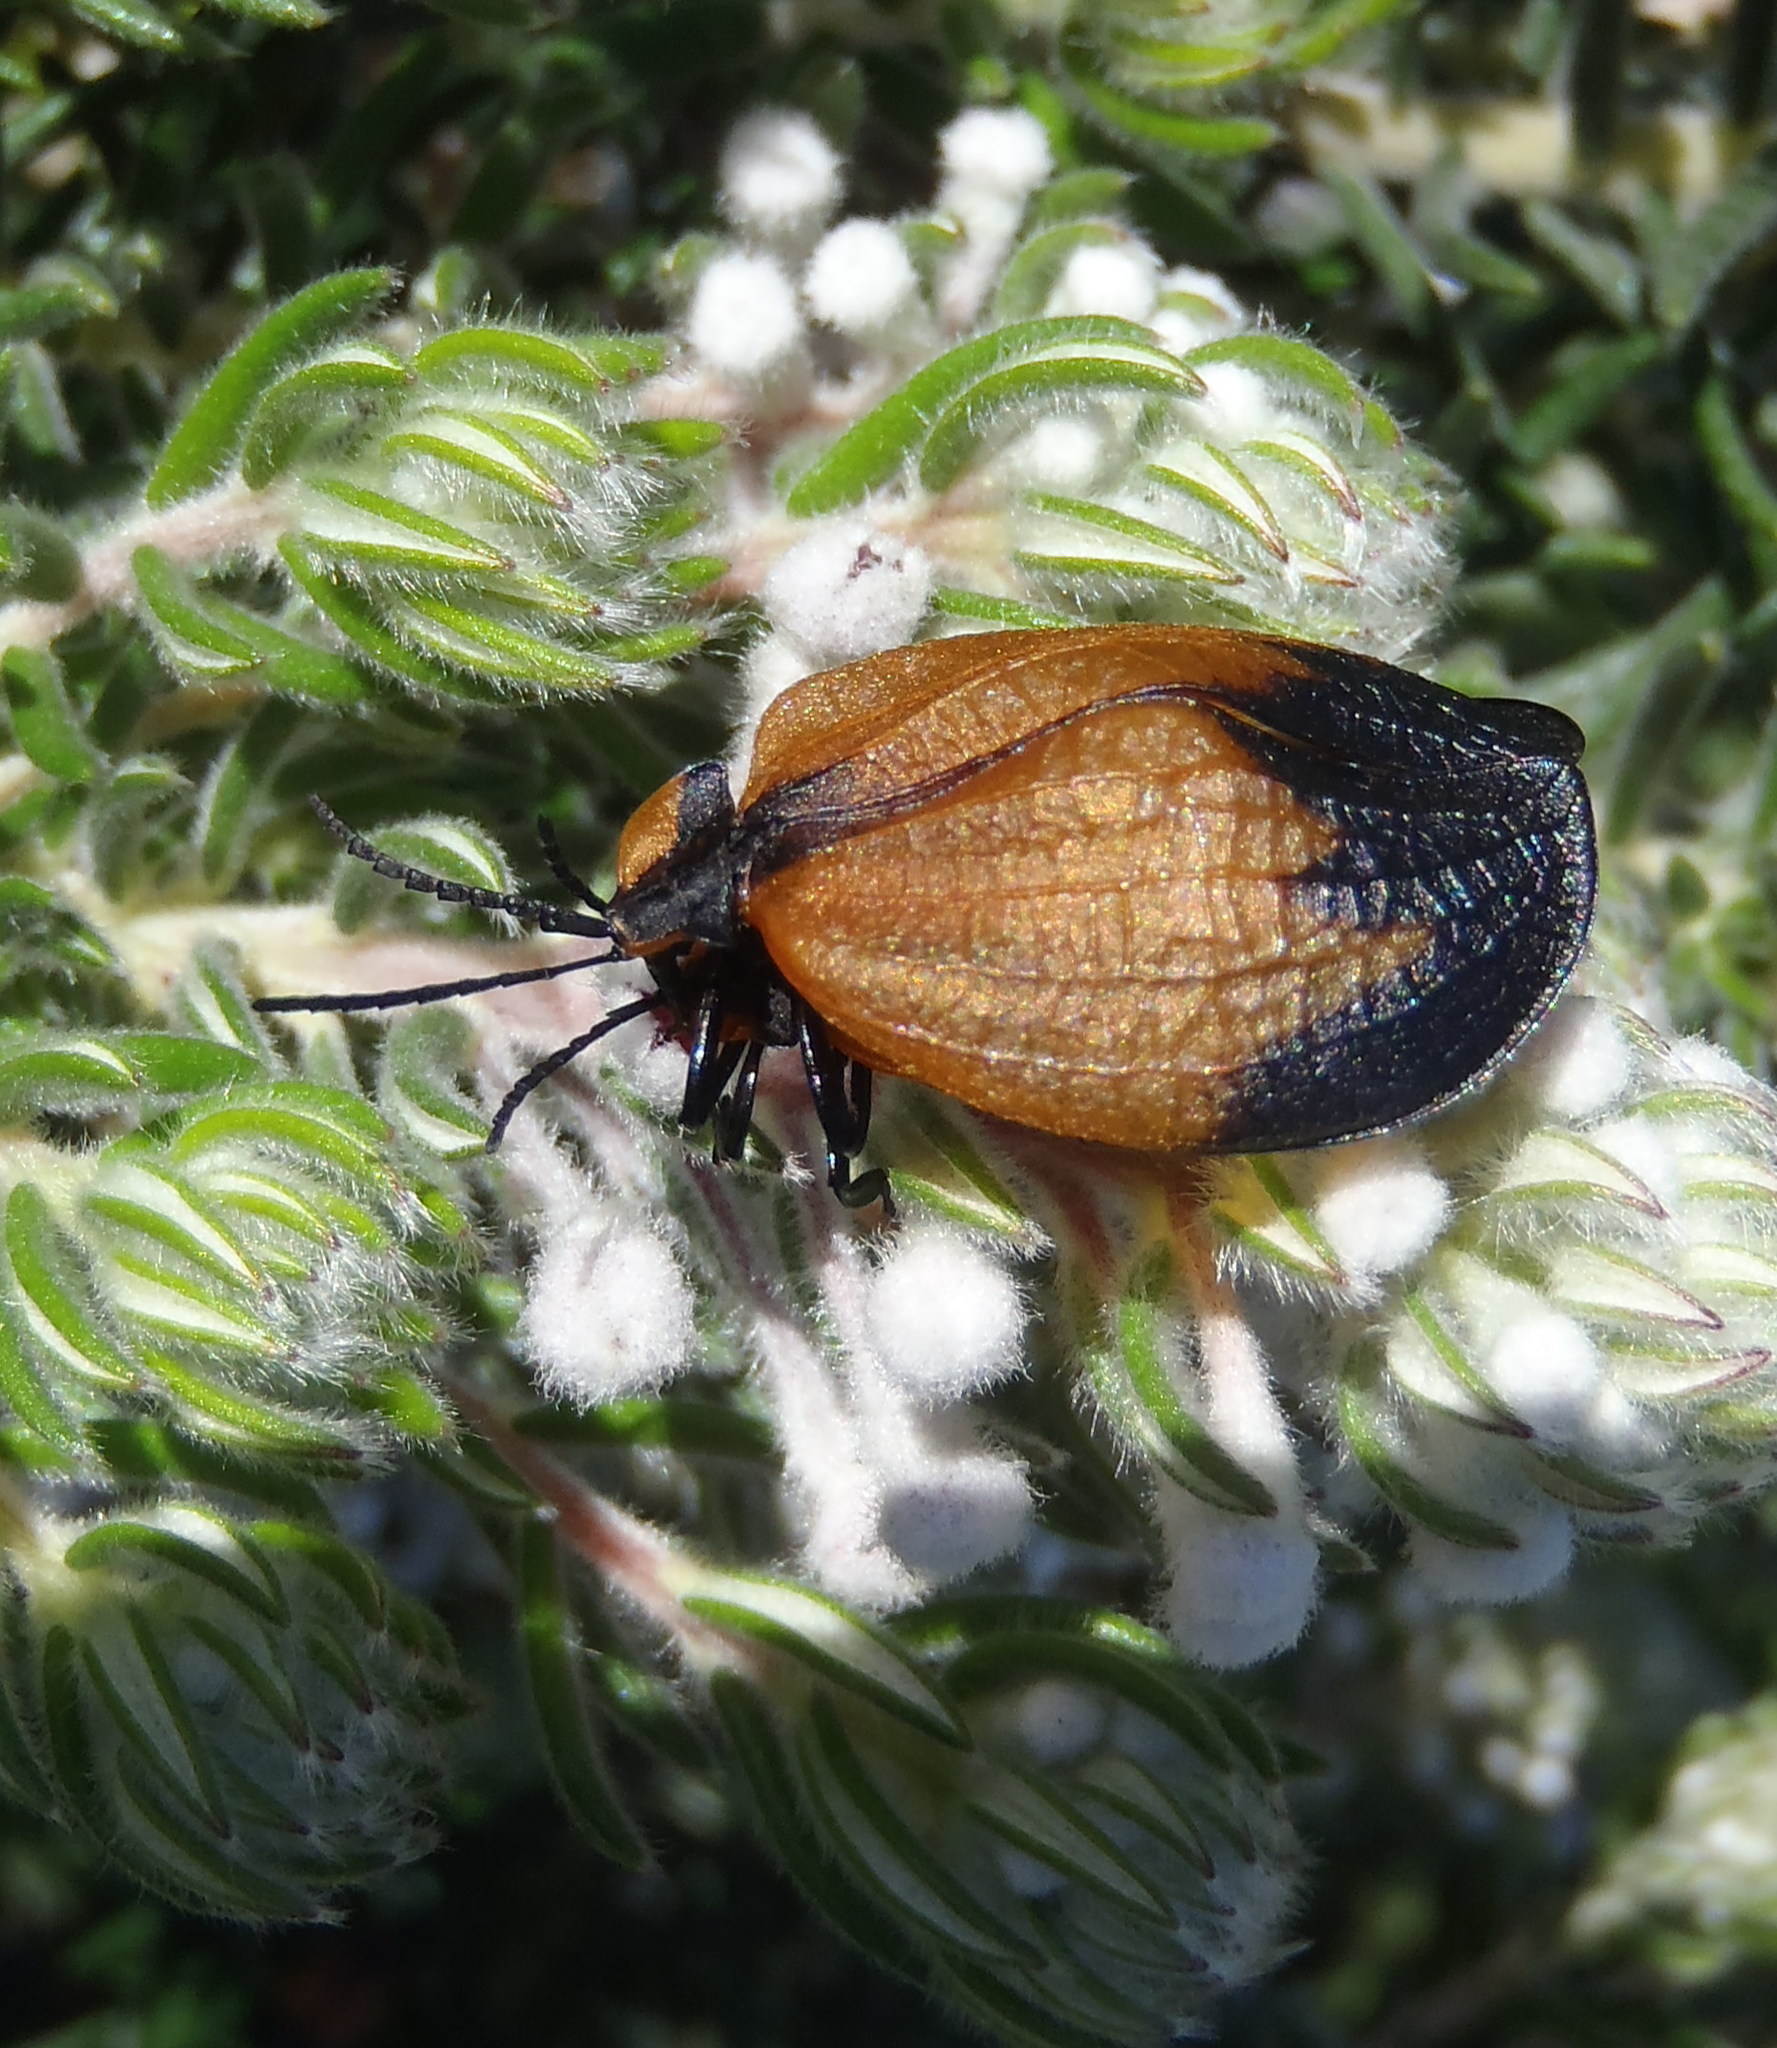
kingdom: Animalia
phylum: Arthropoda
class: Insecta
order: Coleoptera
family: Lycidae
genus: Lycus
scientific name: Lycus
